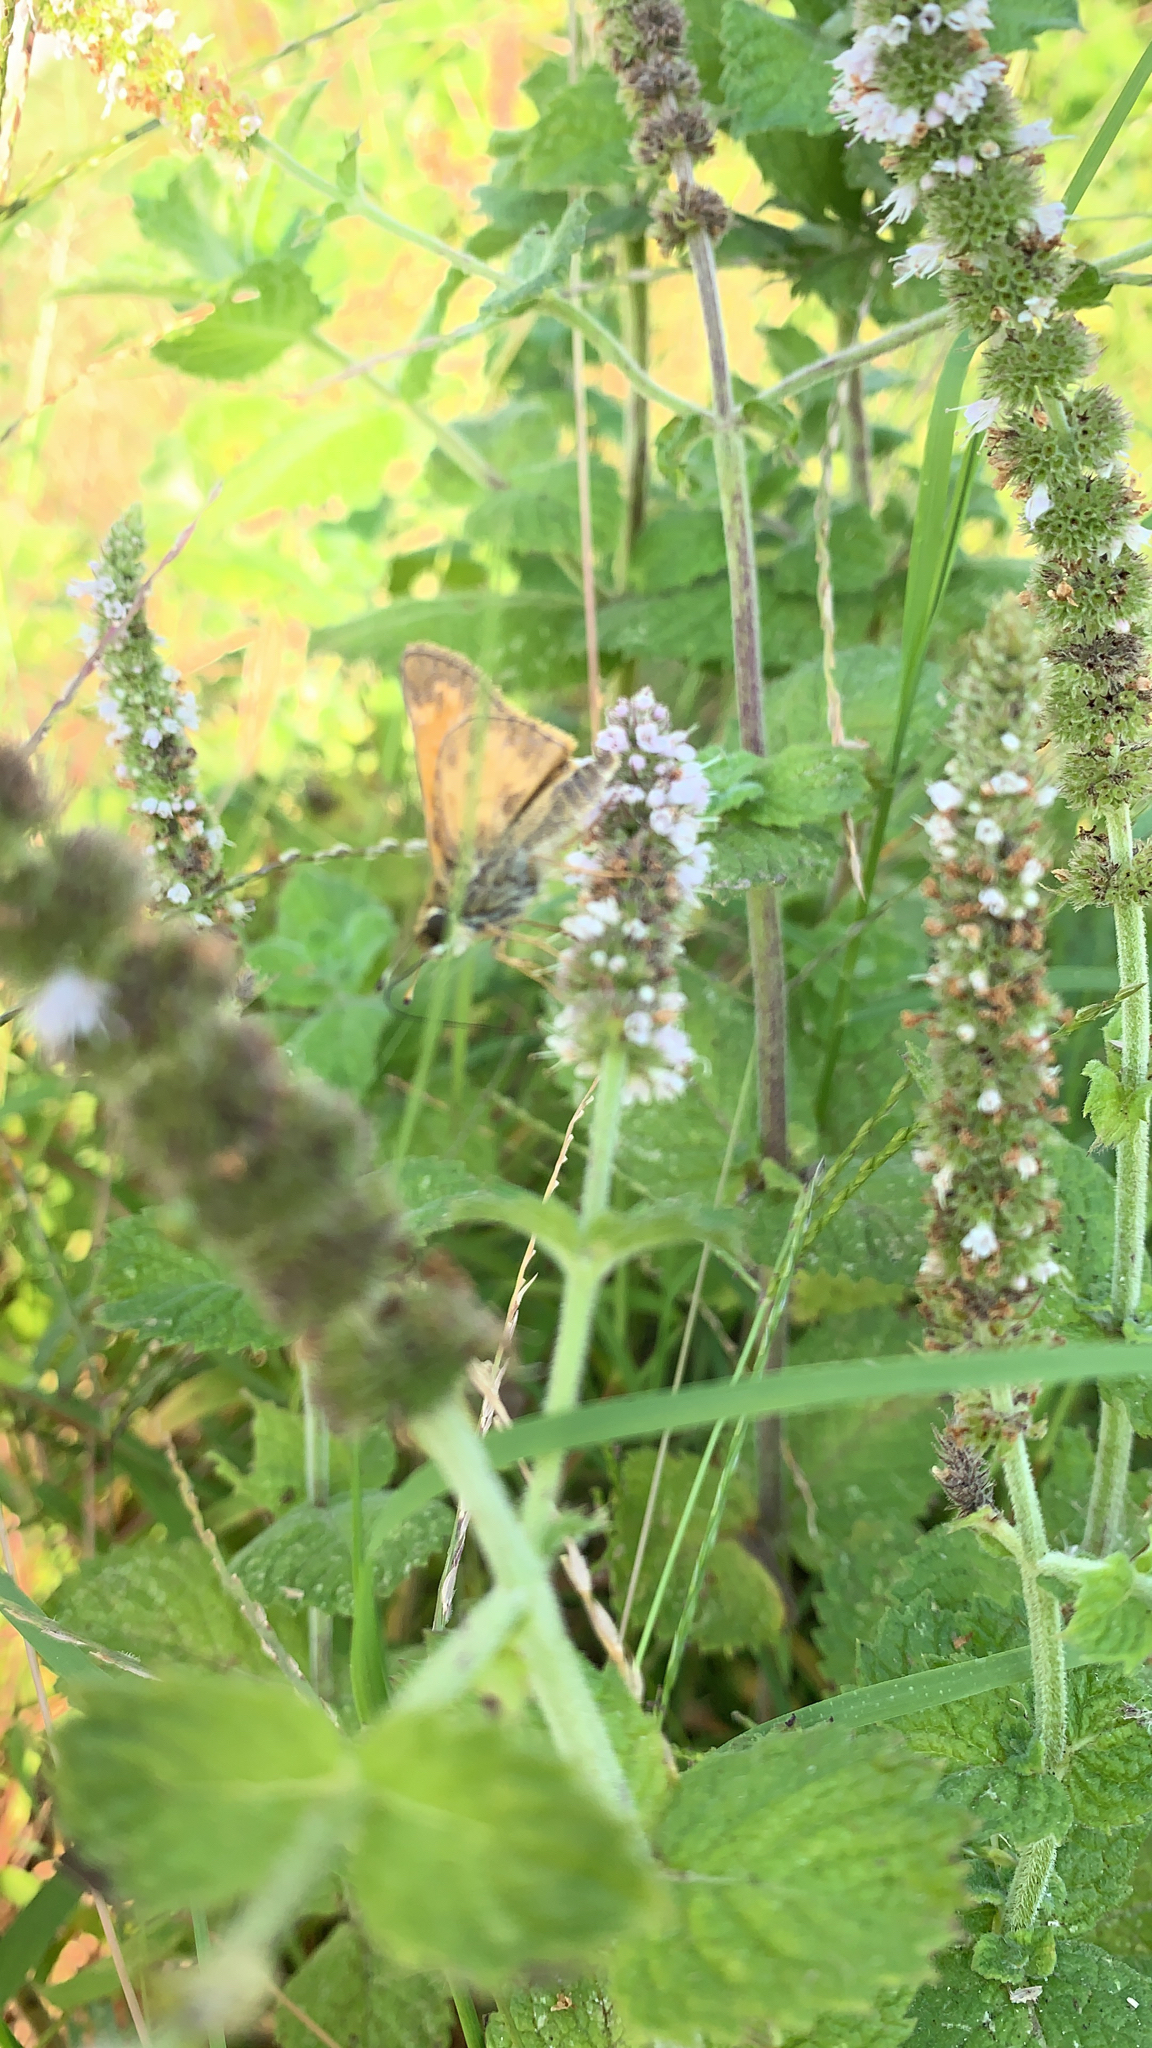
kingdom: Animalia
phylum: Arthropoda
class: Insecta
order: Lepidoptera
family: Hesperiidae
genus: Atalopedes
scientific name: Atalopedes
